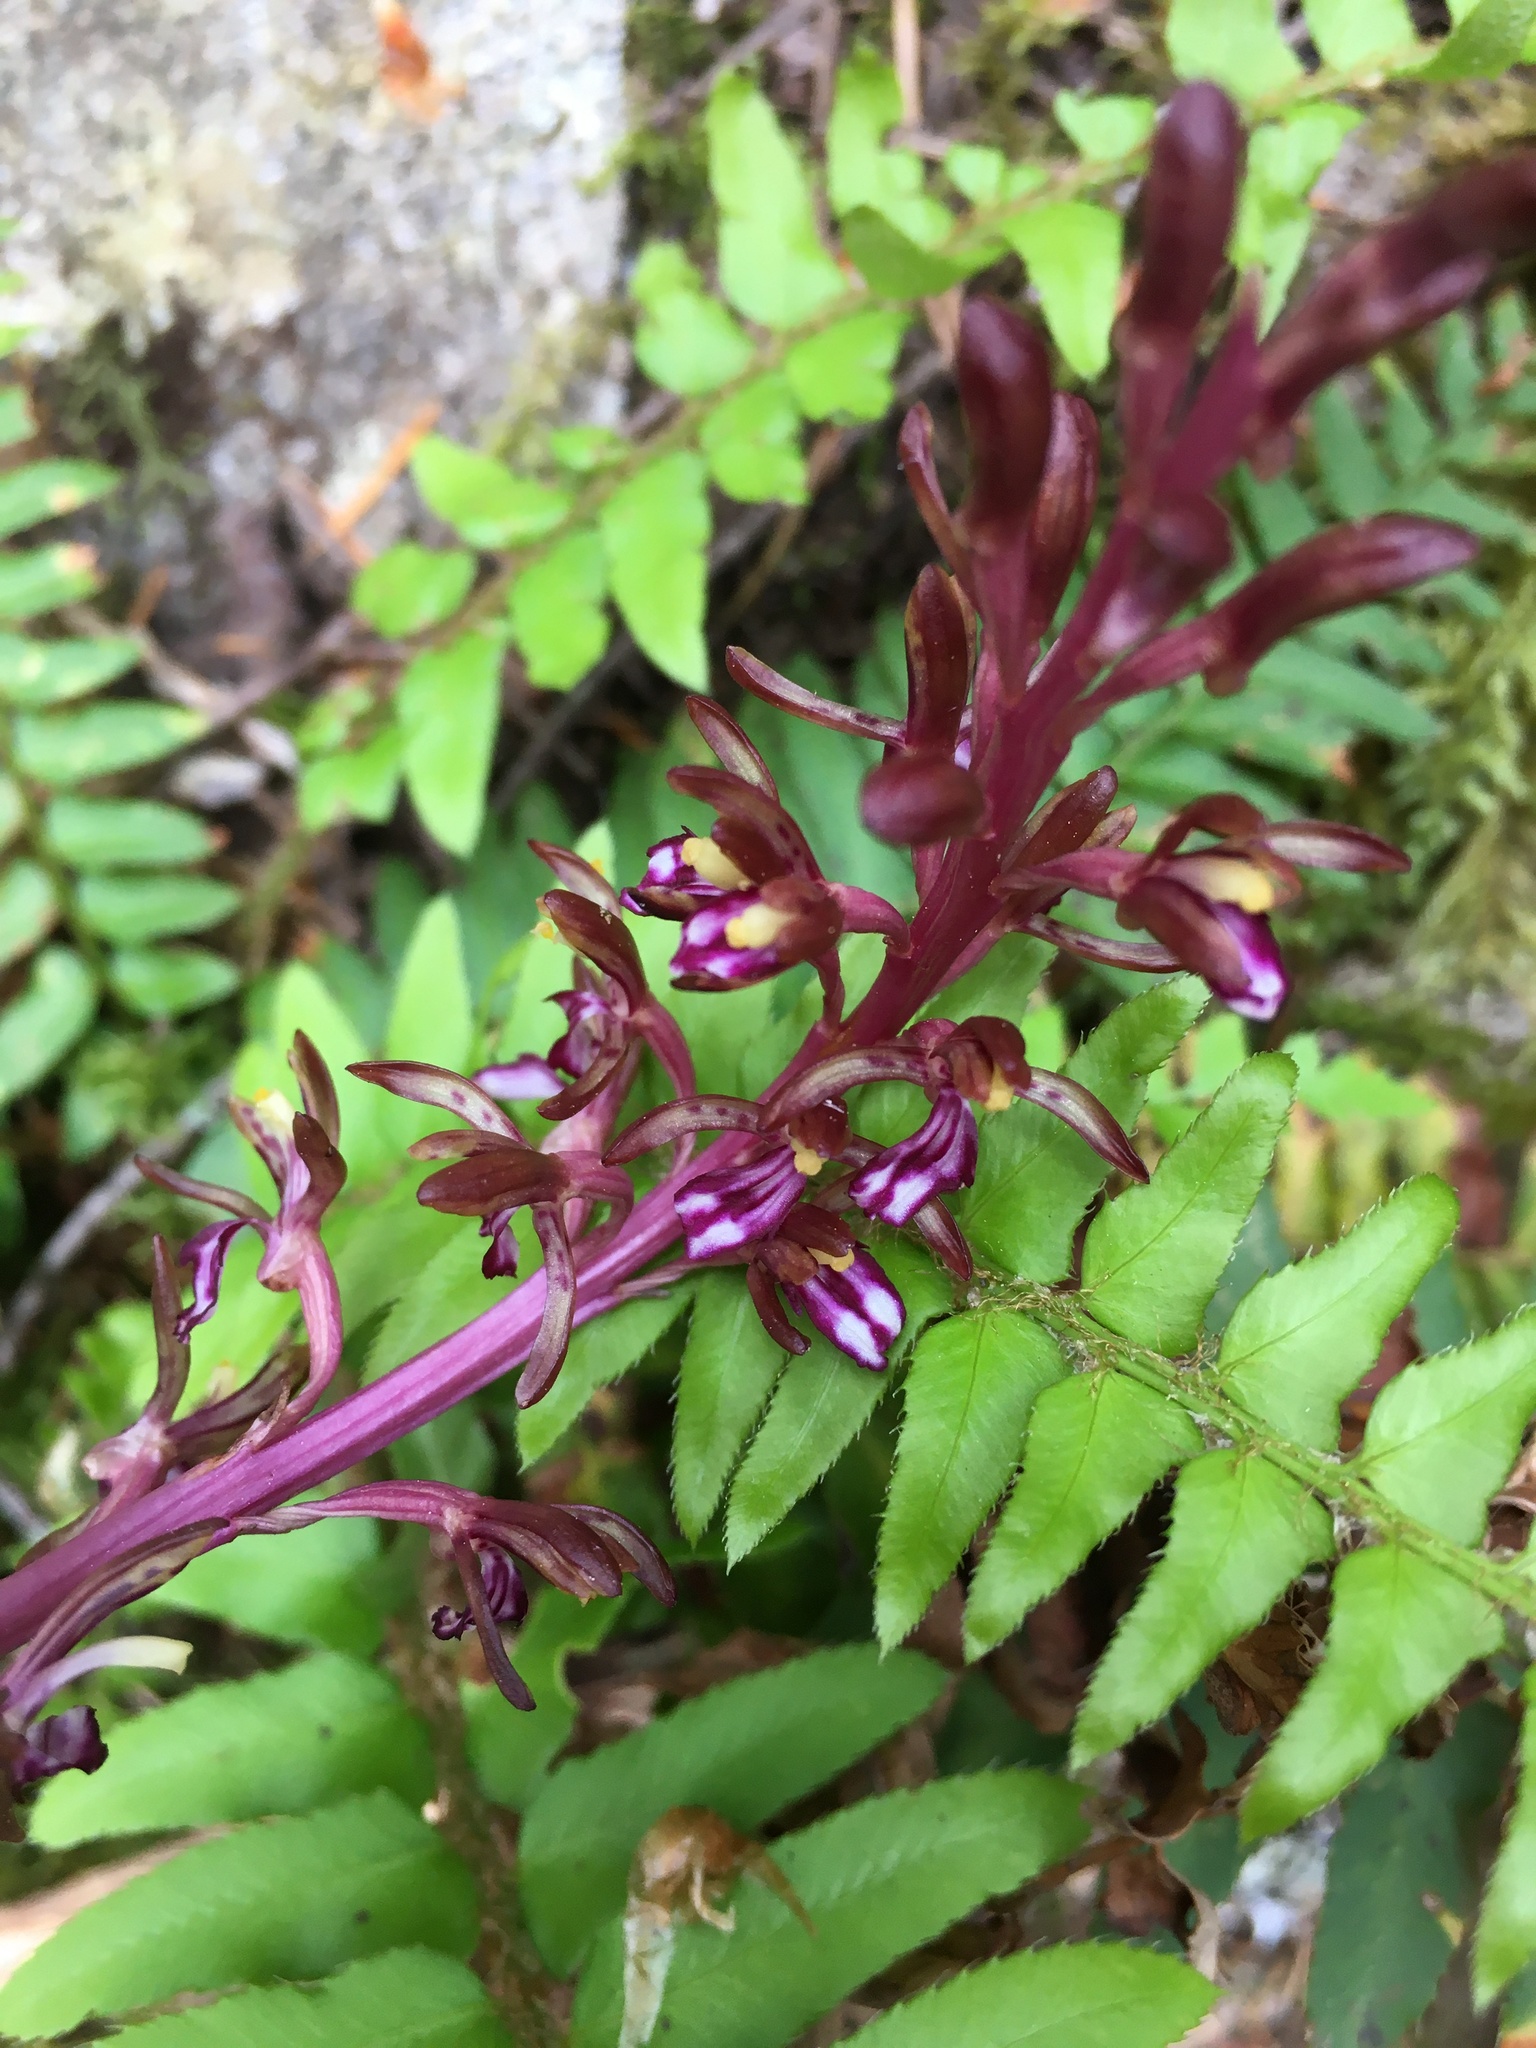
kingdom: Plantae
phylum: Tracheophyta
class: Liliopsida
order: Asparagales
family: Orchidaceae
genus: Corallorhiza
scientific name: Corallorhiza mertensiana
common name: Pacific coralroot
